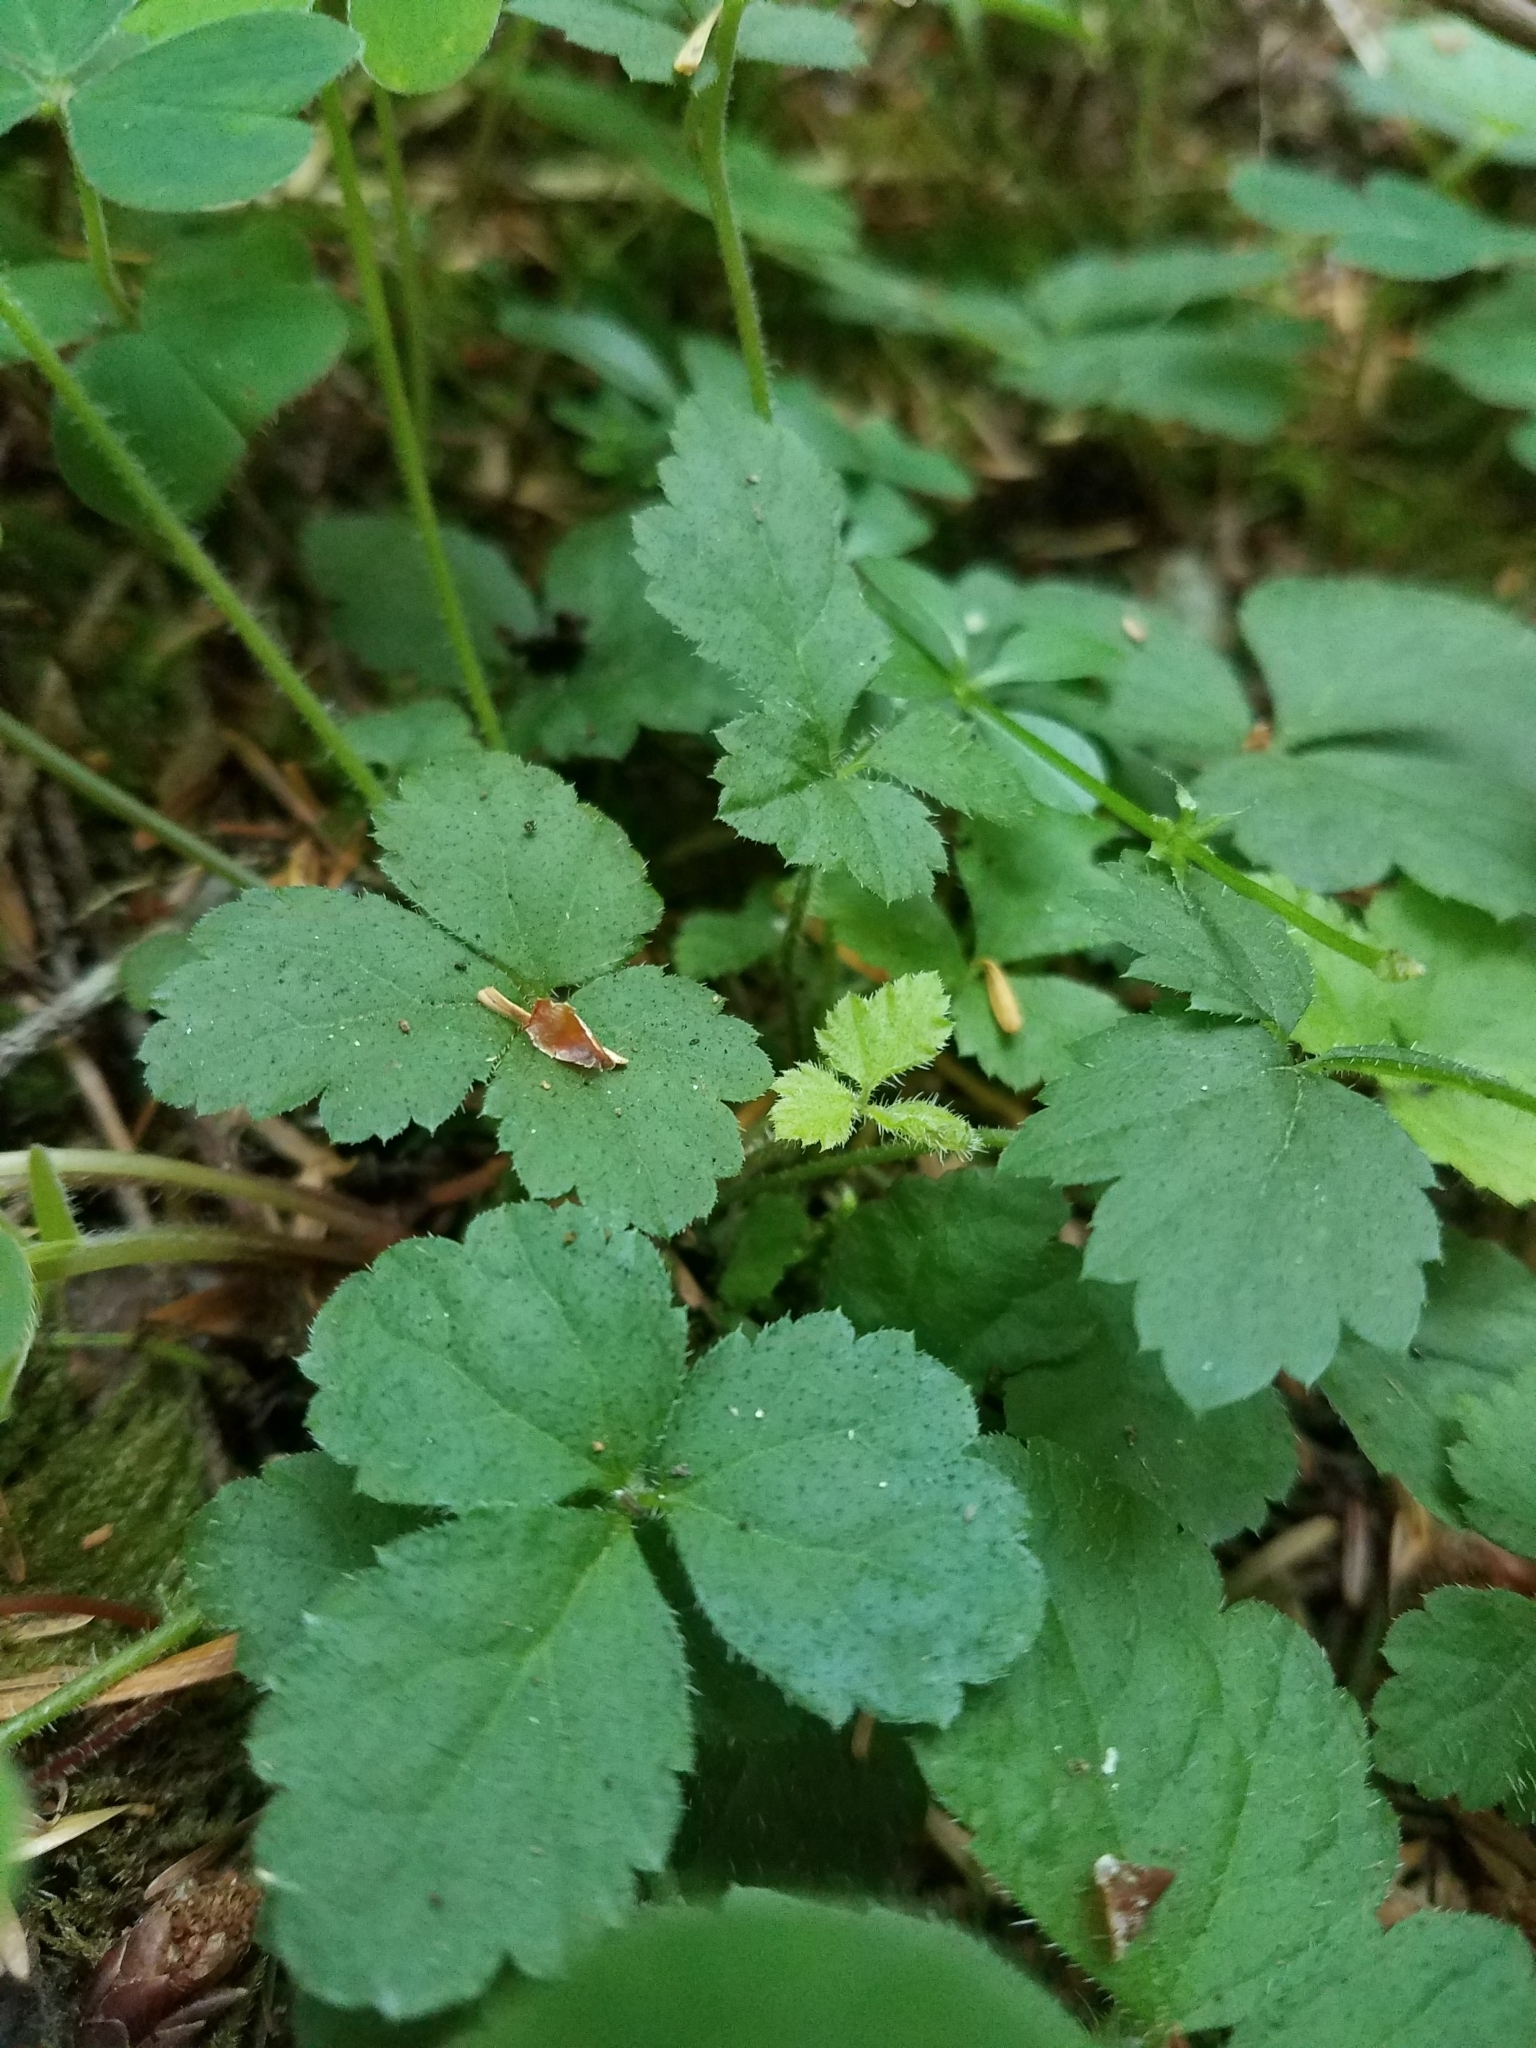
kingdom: Plantae
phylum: Tracheophyta
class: Magnoliopsida
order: Saxifragales
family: Saxifragaceae
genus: Tiarella
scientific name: Tiarella trifoliata
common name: Sugar-scoop
